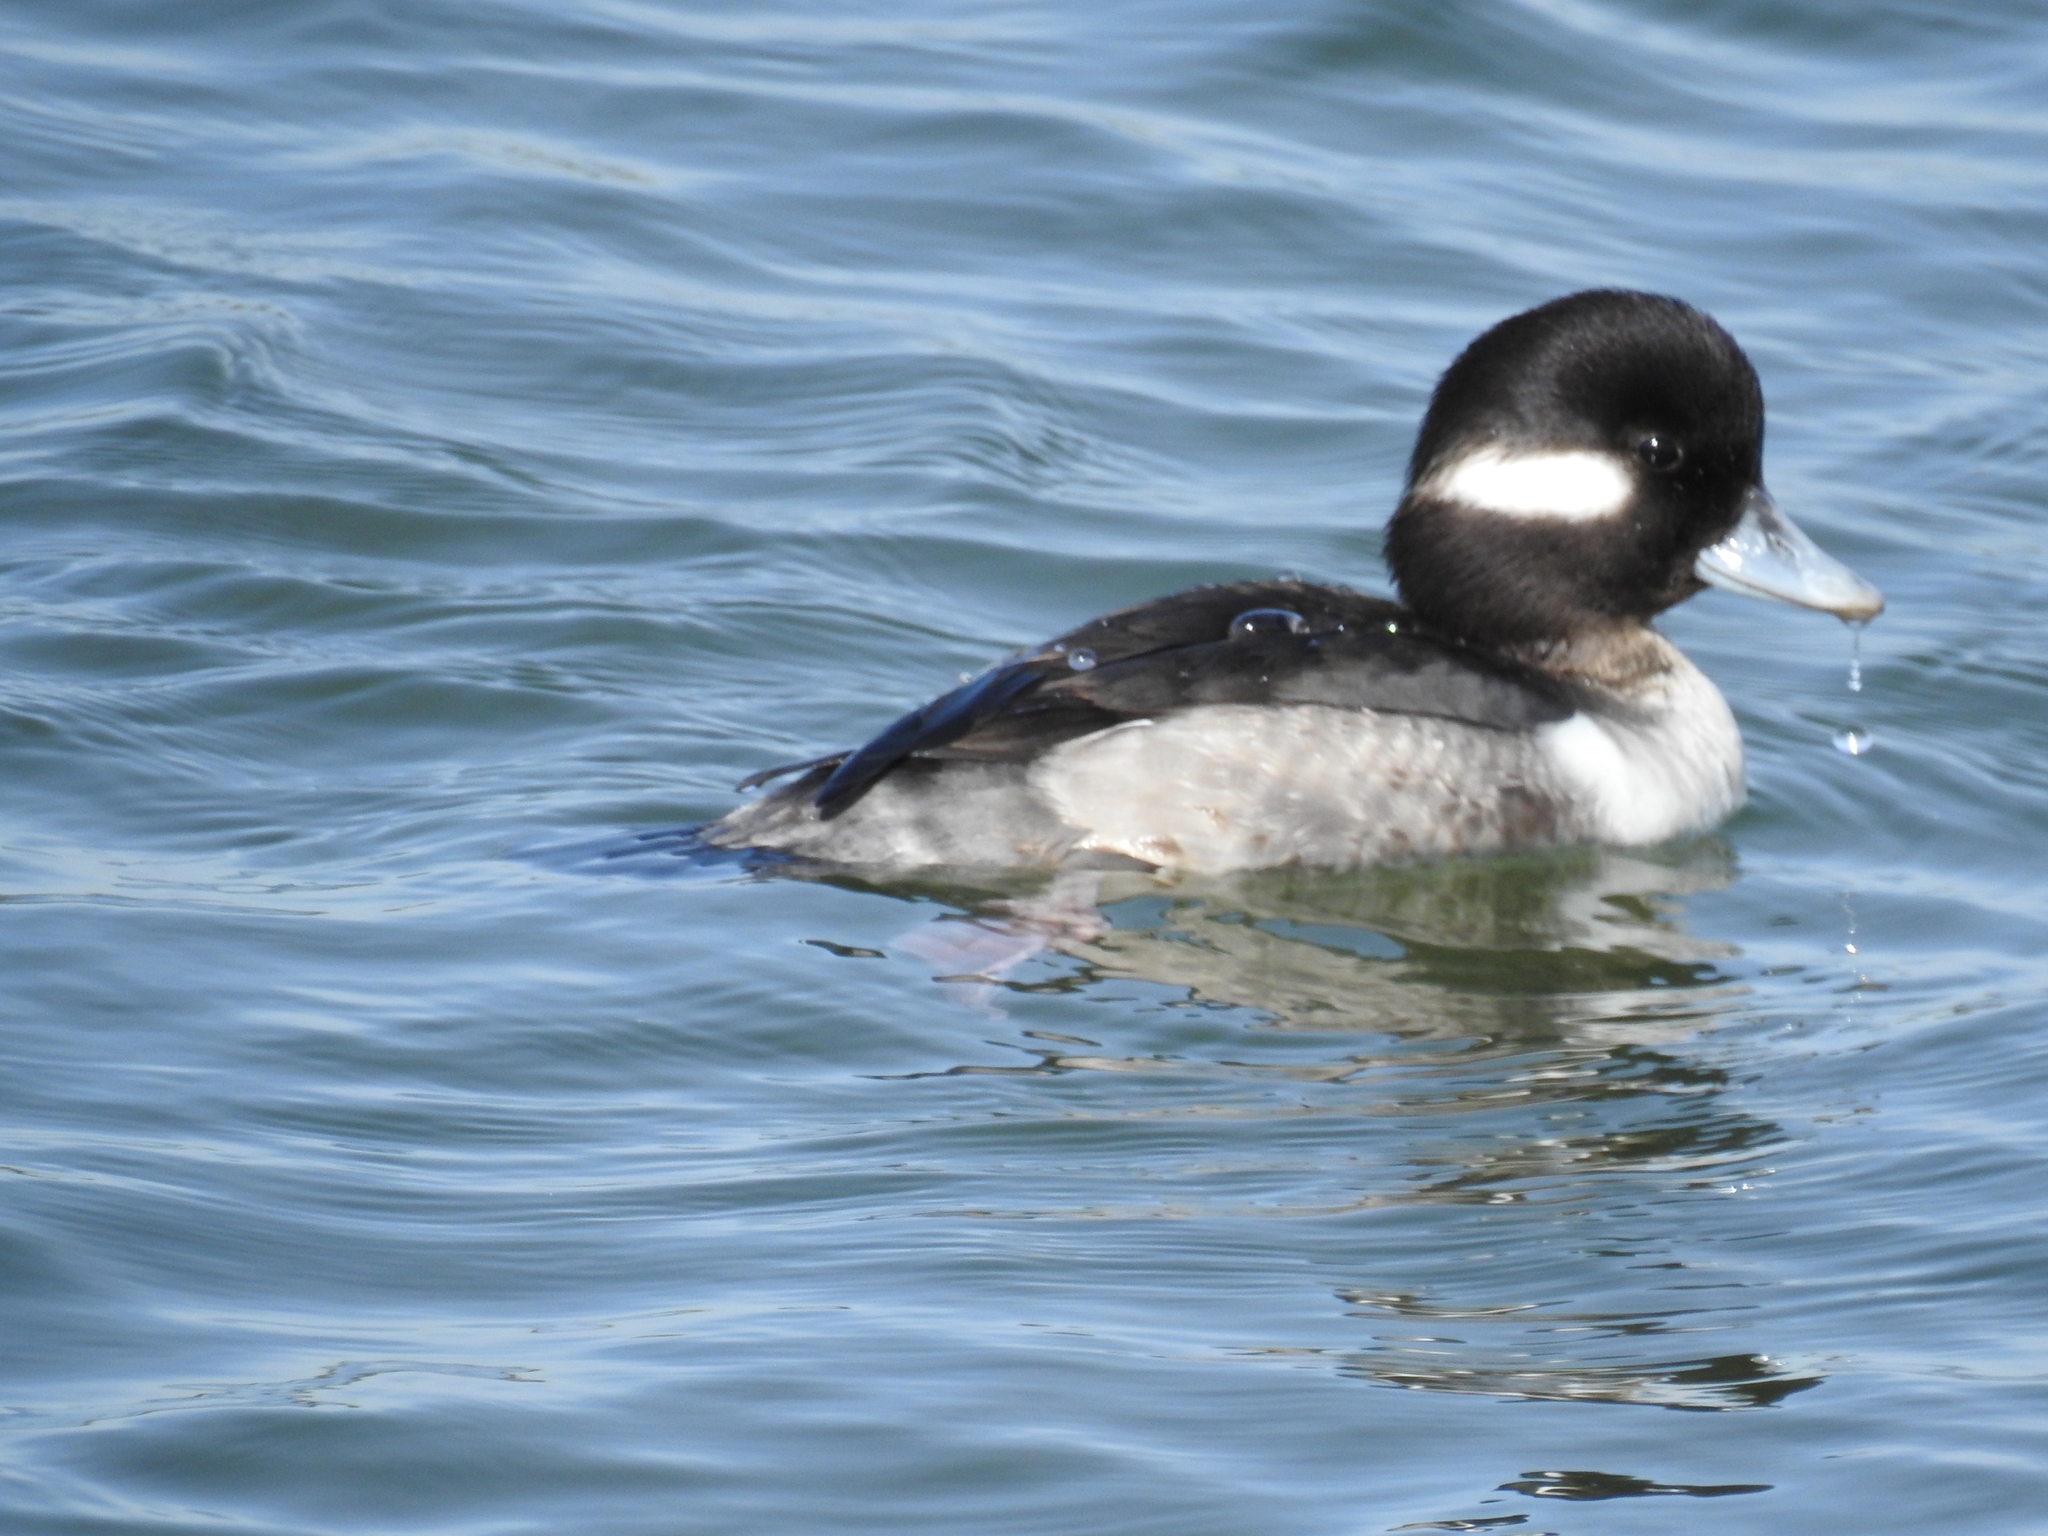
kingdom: Animalia
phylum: Chordata
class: Aves
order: Anseriformes
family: Anatidae
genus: Bucephala
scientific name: Bucephala albeola
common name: Bufflehead
